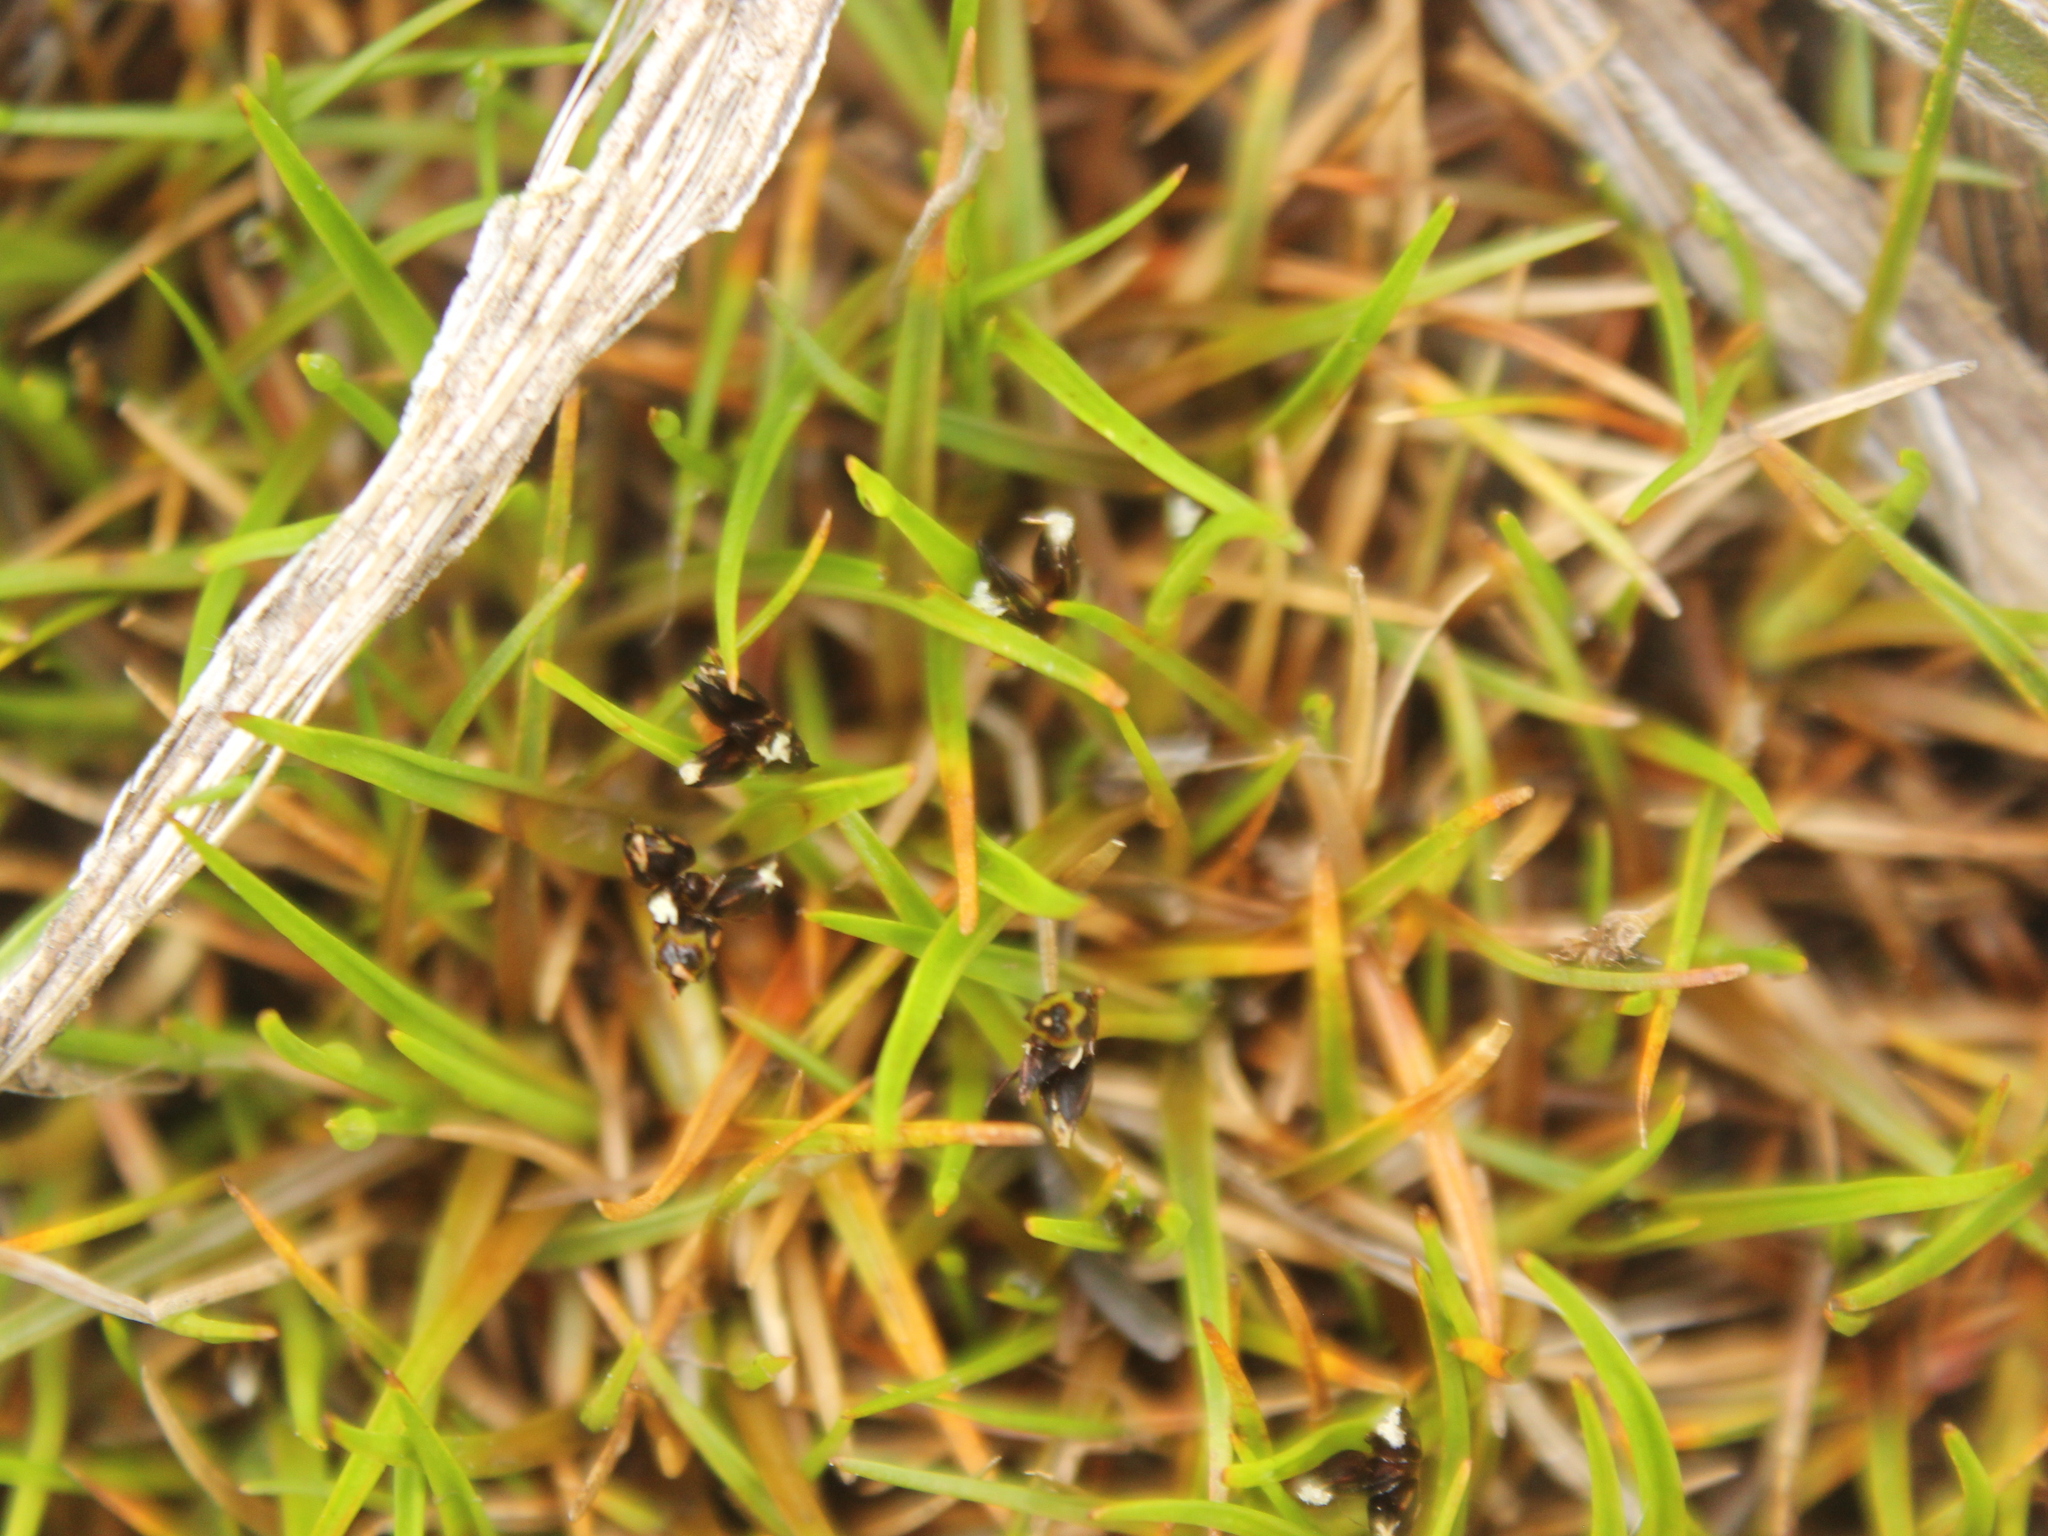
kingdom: Plantae
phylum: Tracheophyta
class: Liliopsida
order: Poales
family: Juncaceae
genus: Juncus
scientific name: Juncus antarcticus
